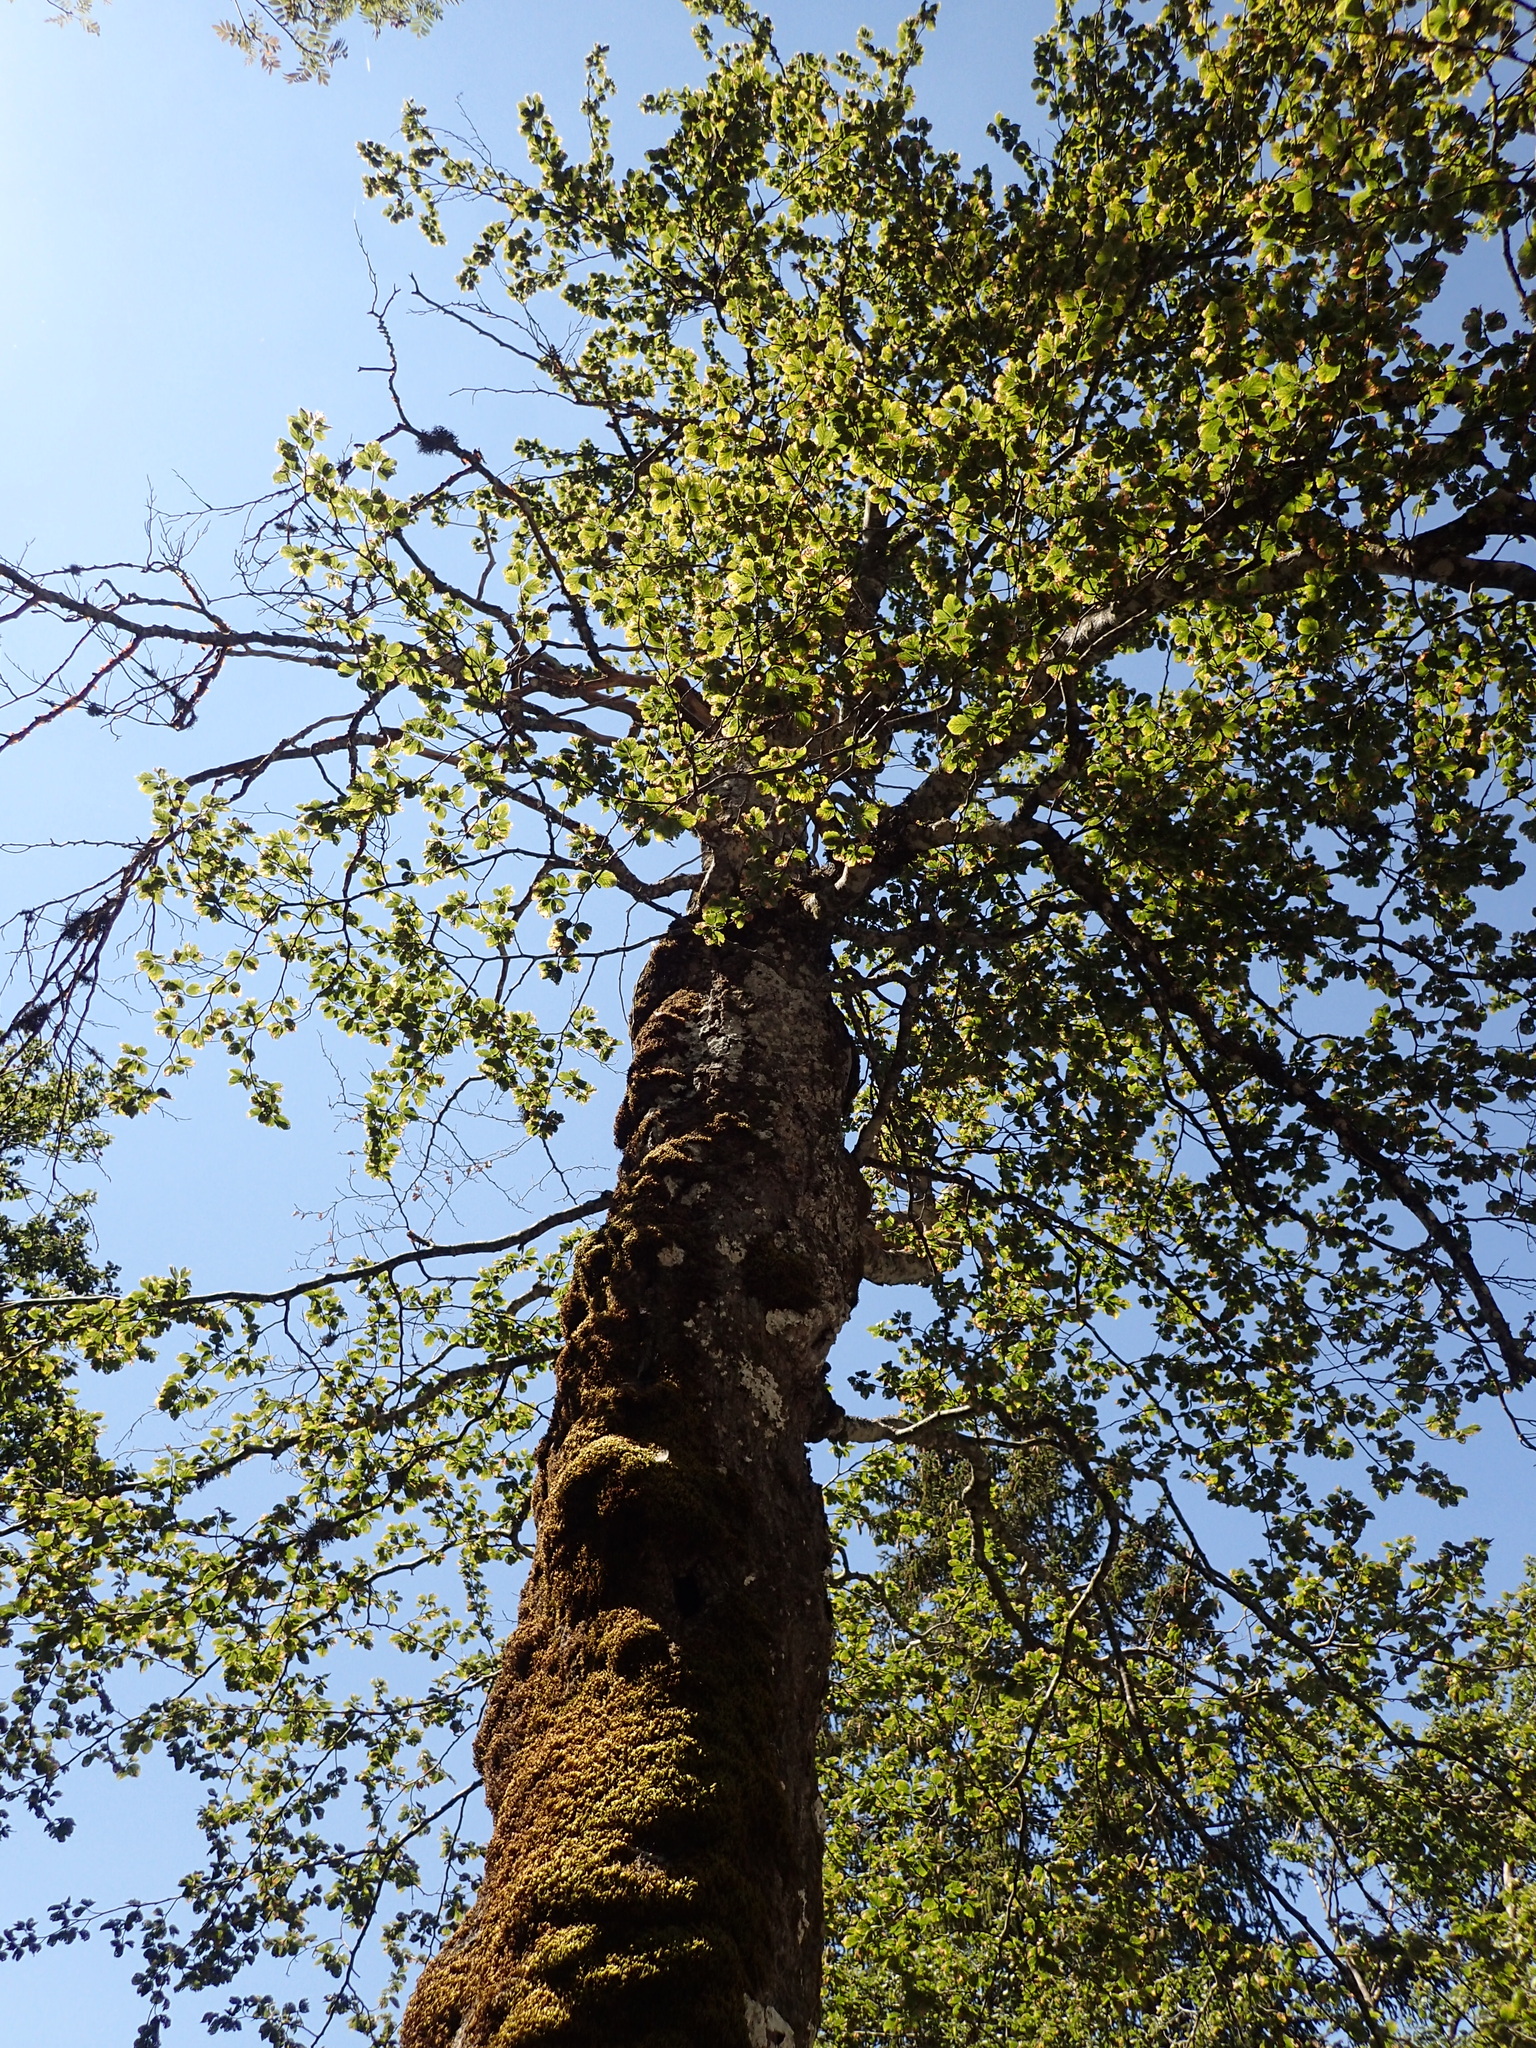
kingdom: Plantae
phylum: Tracheophyta
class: Magnoliopsida
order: Fagales
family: Fagaceae
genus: Fagus
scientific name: Fagus sylvatica
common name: Beech
